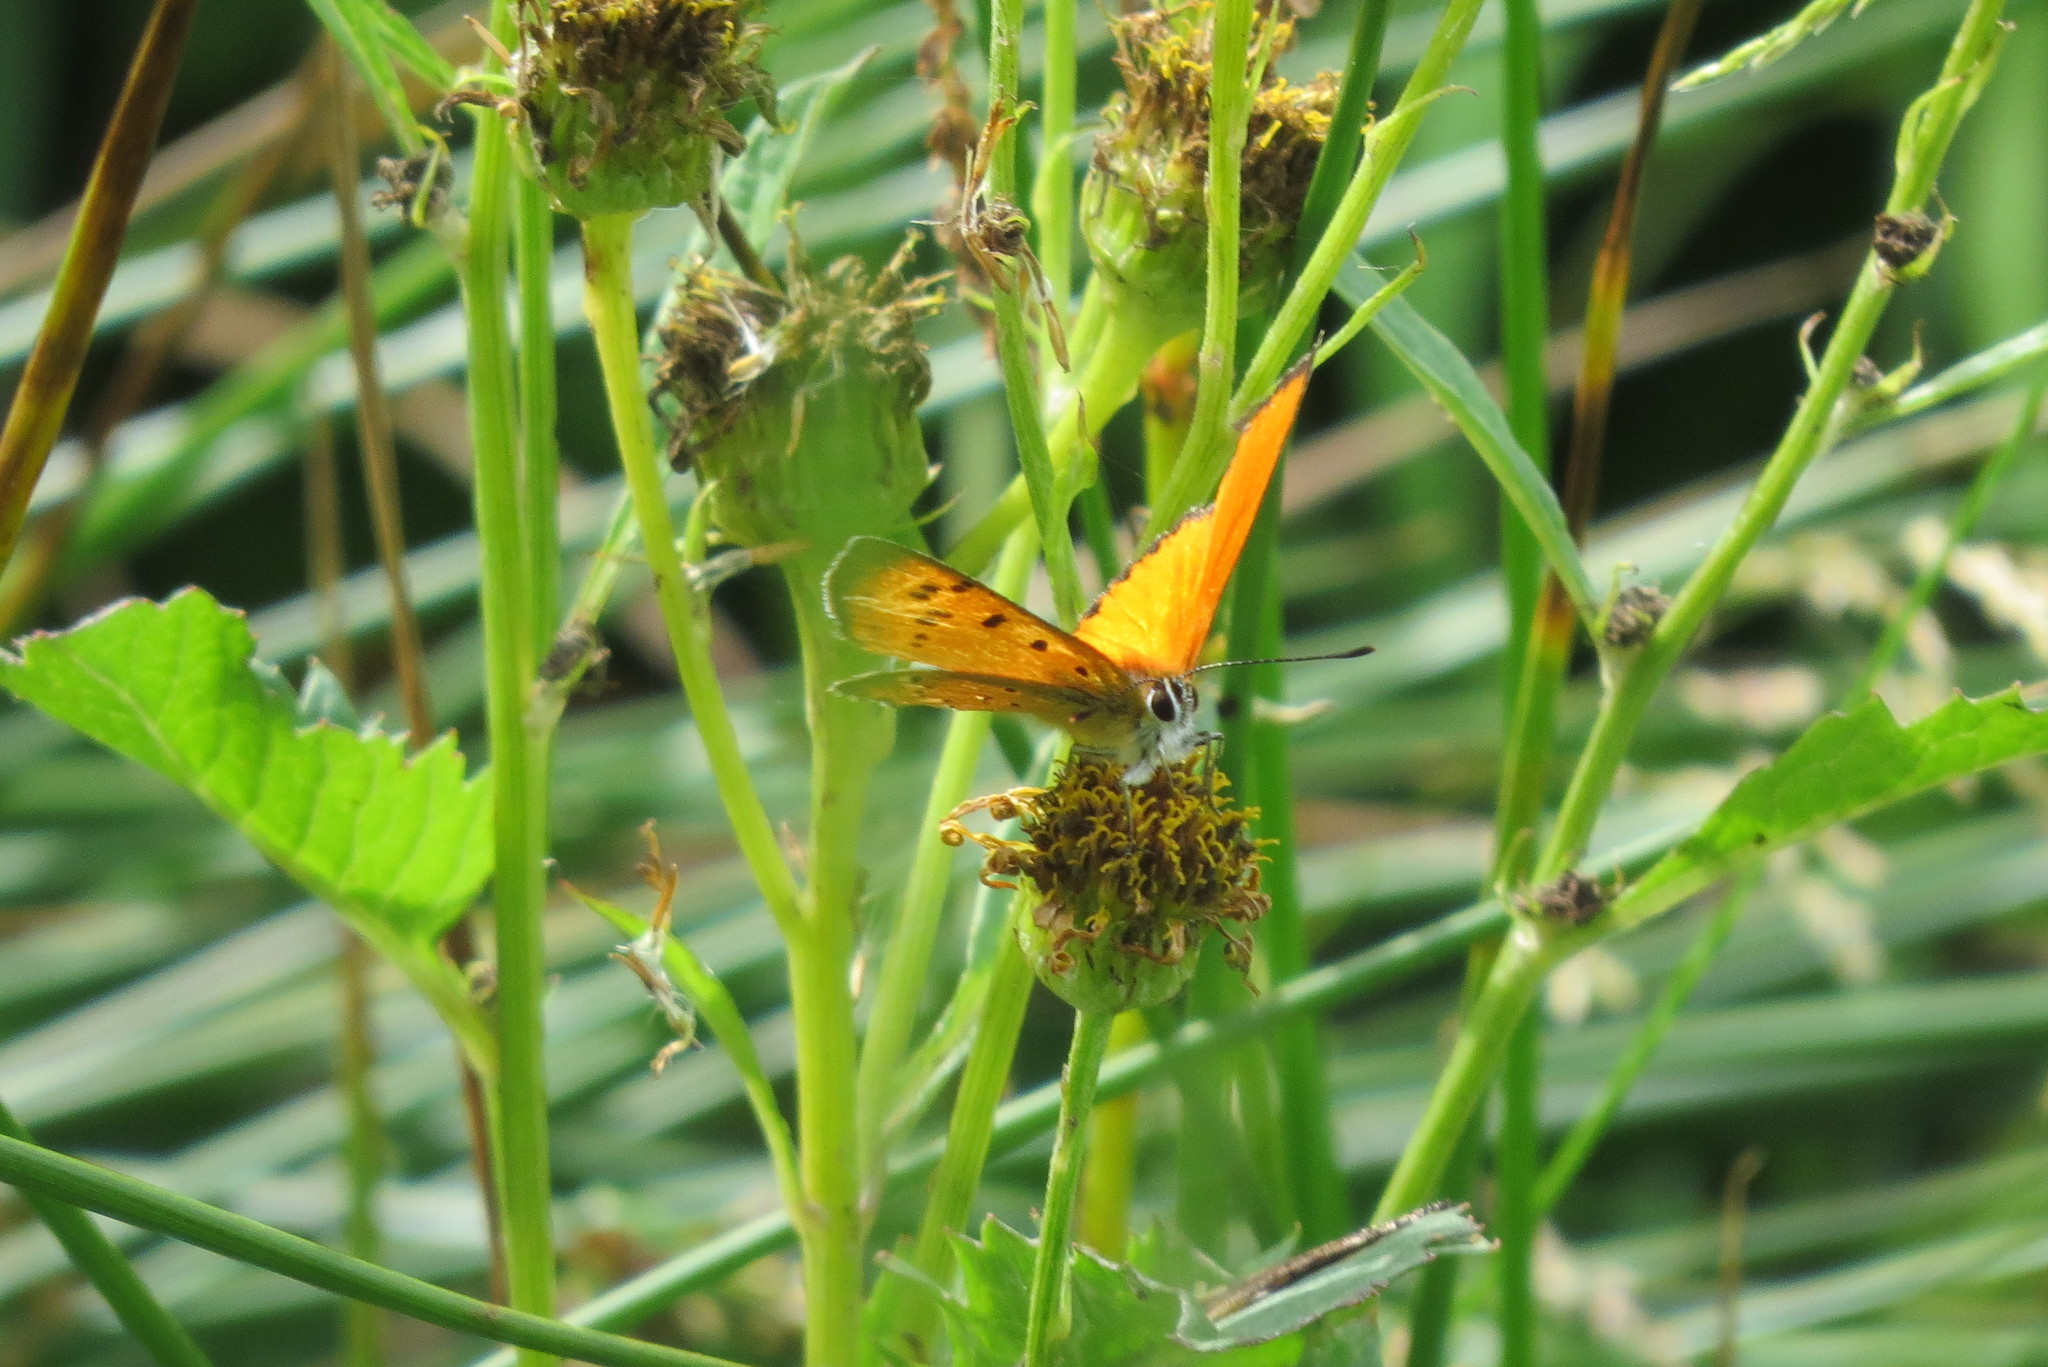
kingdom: Animalia
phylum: Arthropoda
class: Insecta
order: Lepidoptera
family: Lycaenidae
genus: Lycaena
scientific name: Lycaena virgaureae
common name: Scarce copper
